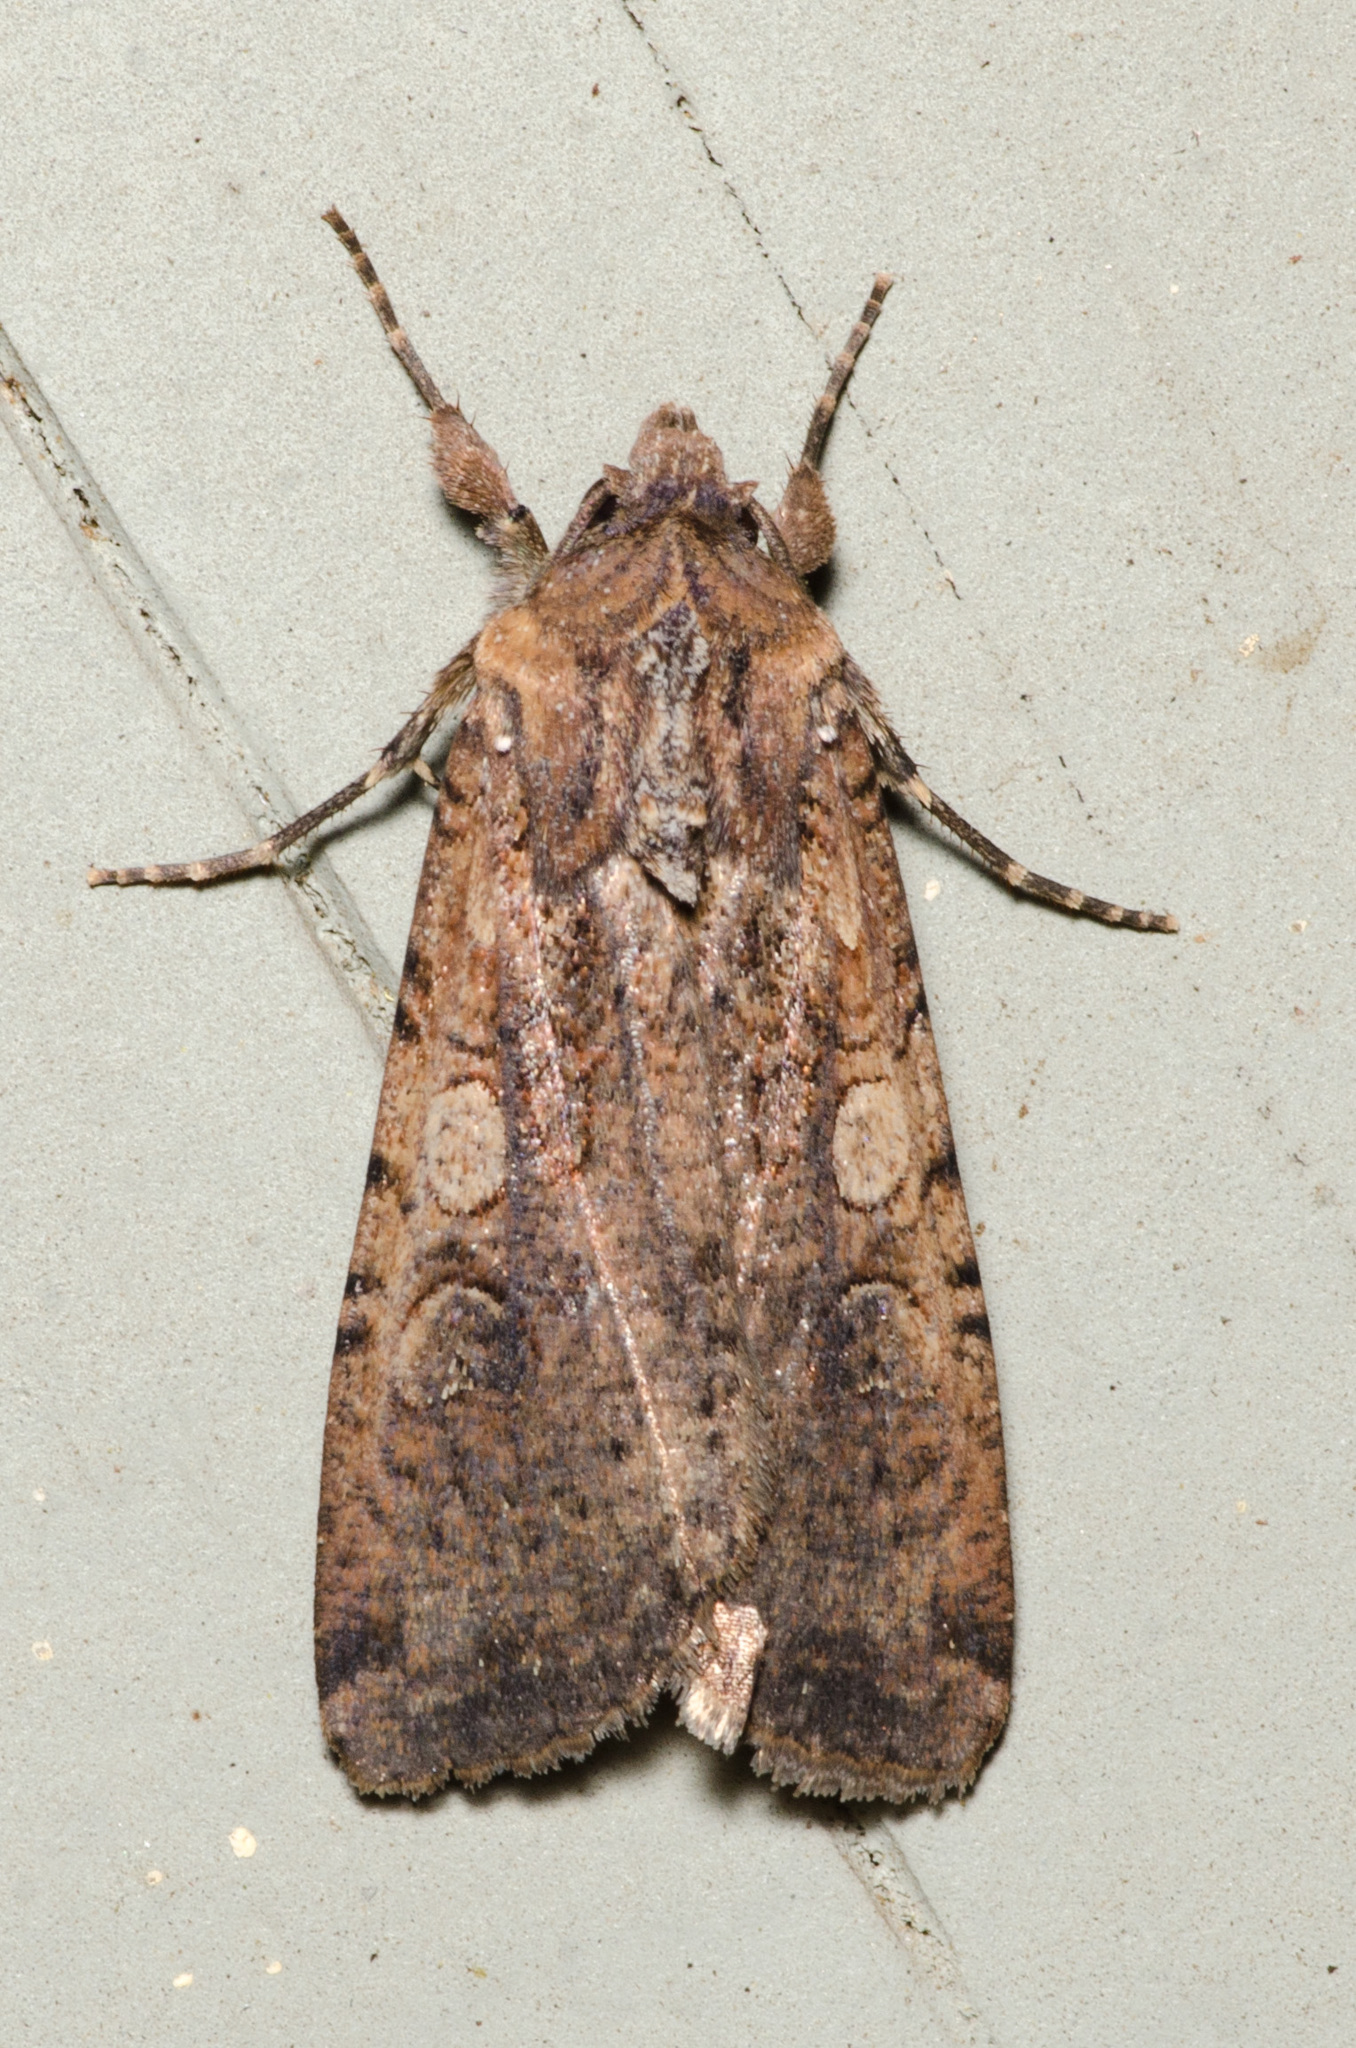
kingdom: Animalia
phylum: Arthropoda
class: Insecta
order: Lepidoptera
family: Noctuidae
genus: Peridroma
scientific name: Peridroma saucia
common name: Pearly underwing
